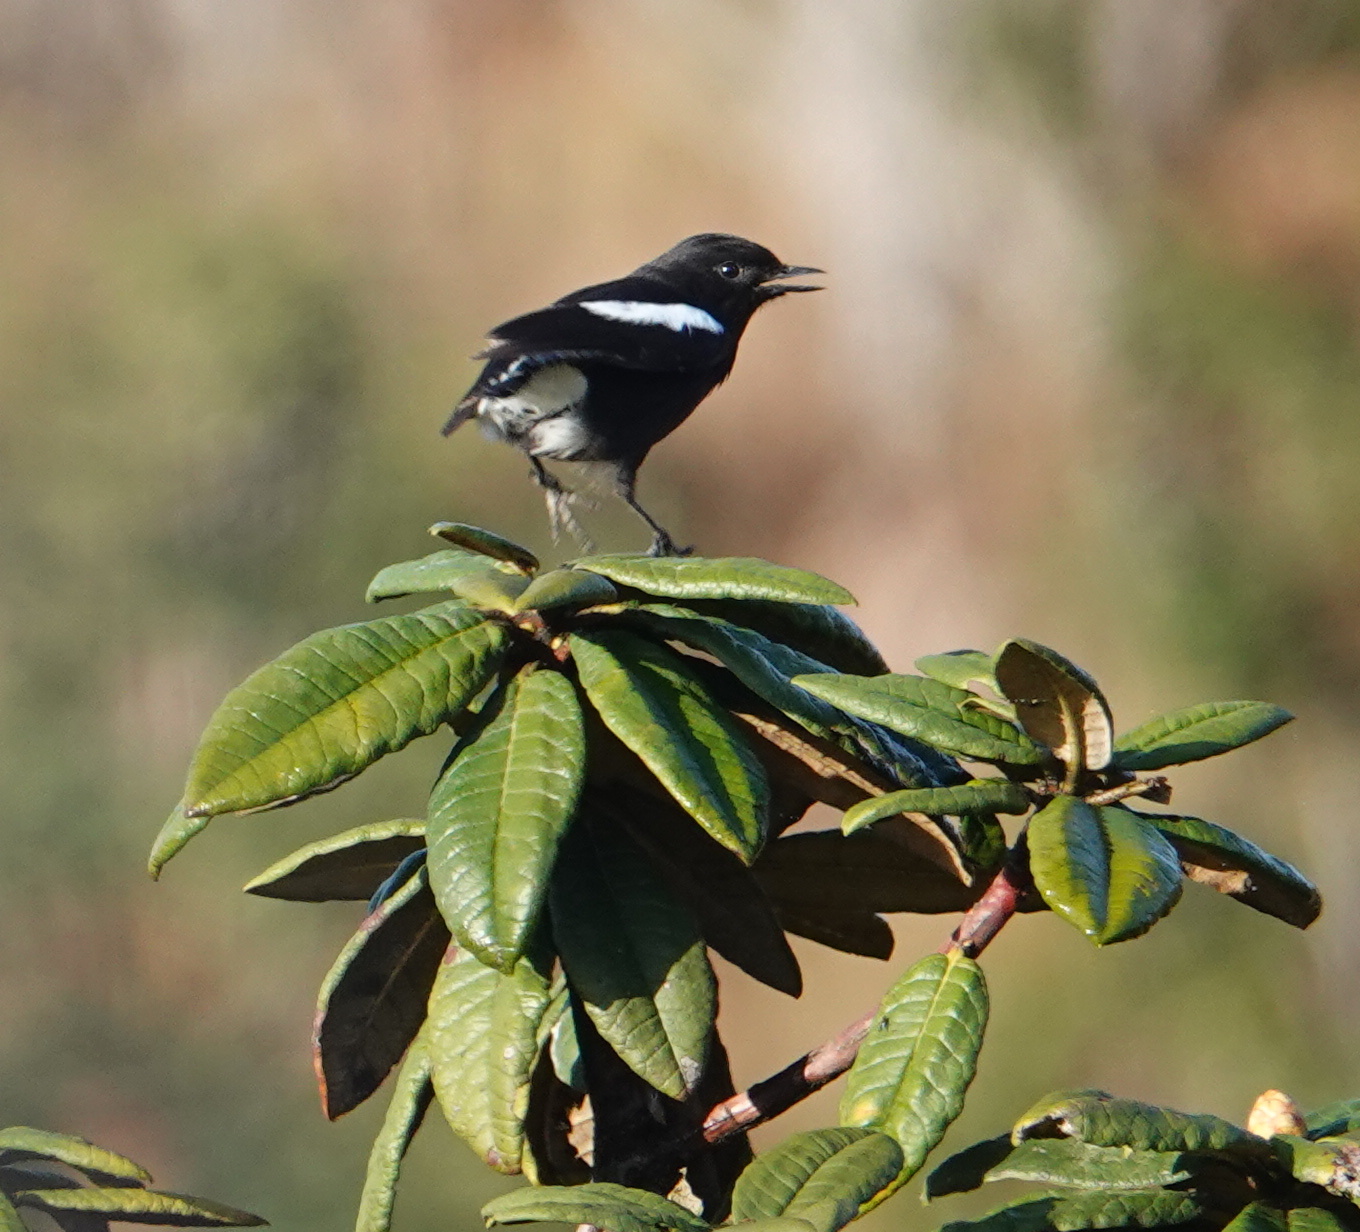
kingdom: Animalia
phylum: Chordata
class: Aves
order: Passeriformes
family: Muscicapidae
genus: Saxicola
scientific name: Saxicola caprata
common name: Pied bush chat
